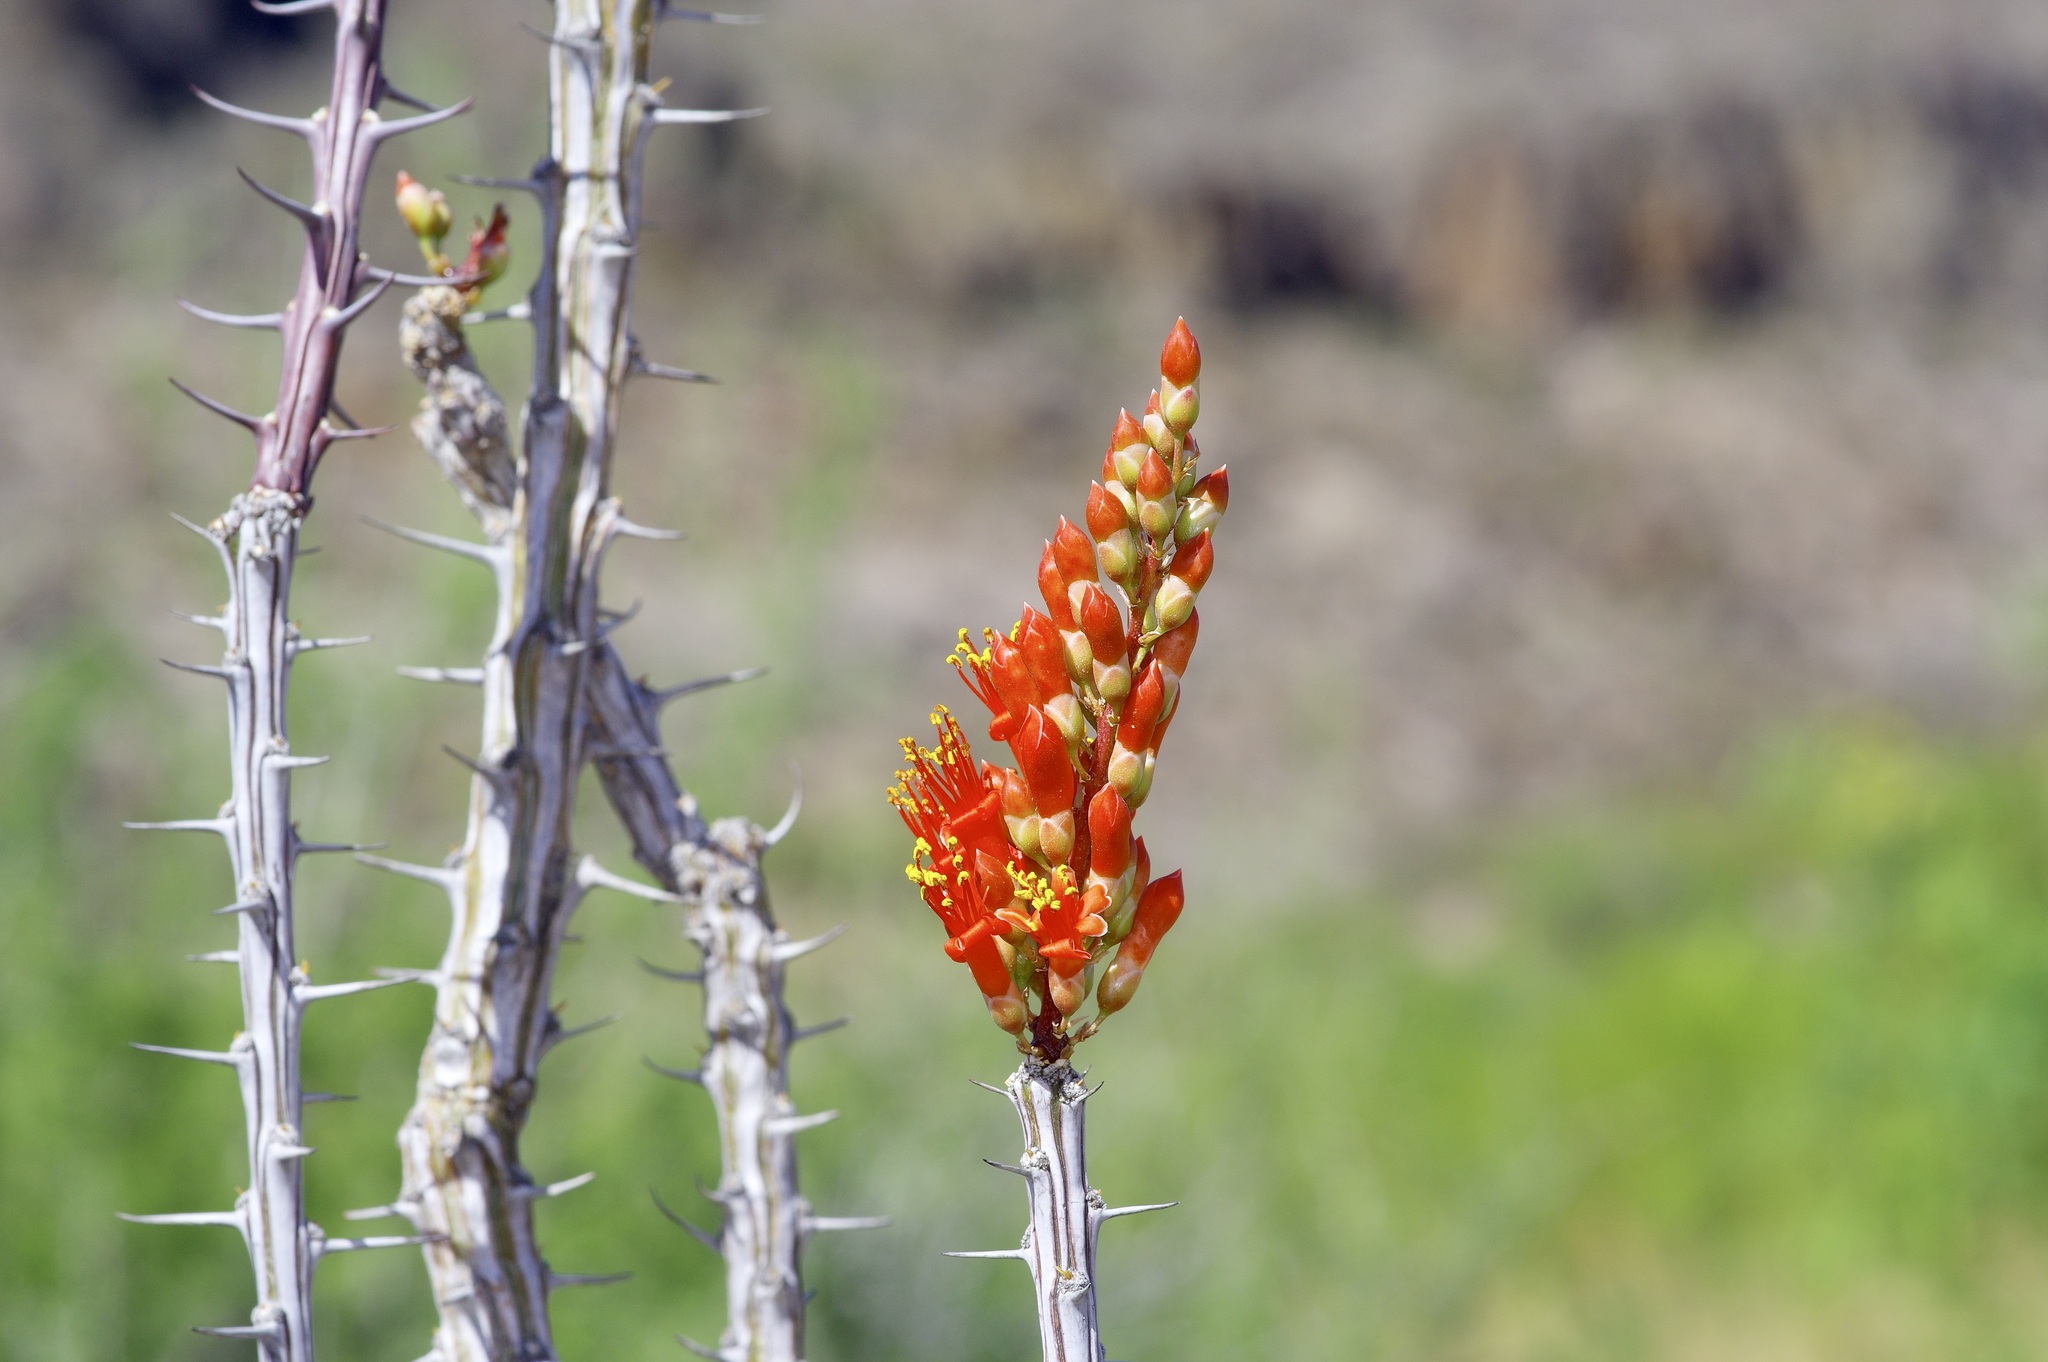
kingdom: Plantae
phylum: Tracheophyta
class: Magnoliopsida
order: Ericales
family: Fouquieriaceae
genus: Fouquieria
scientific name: Fouquieria splendens
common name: Vine-cactus
